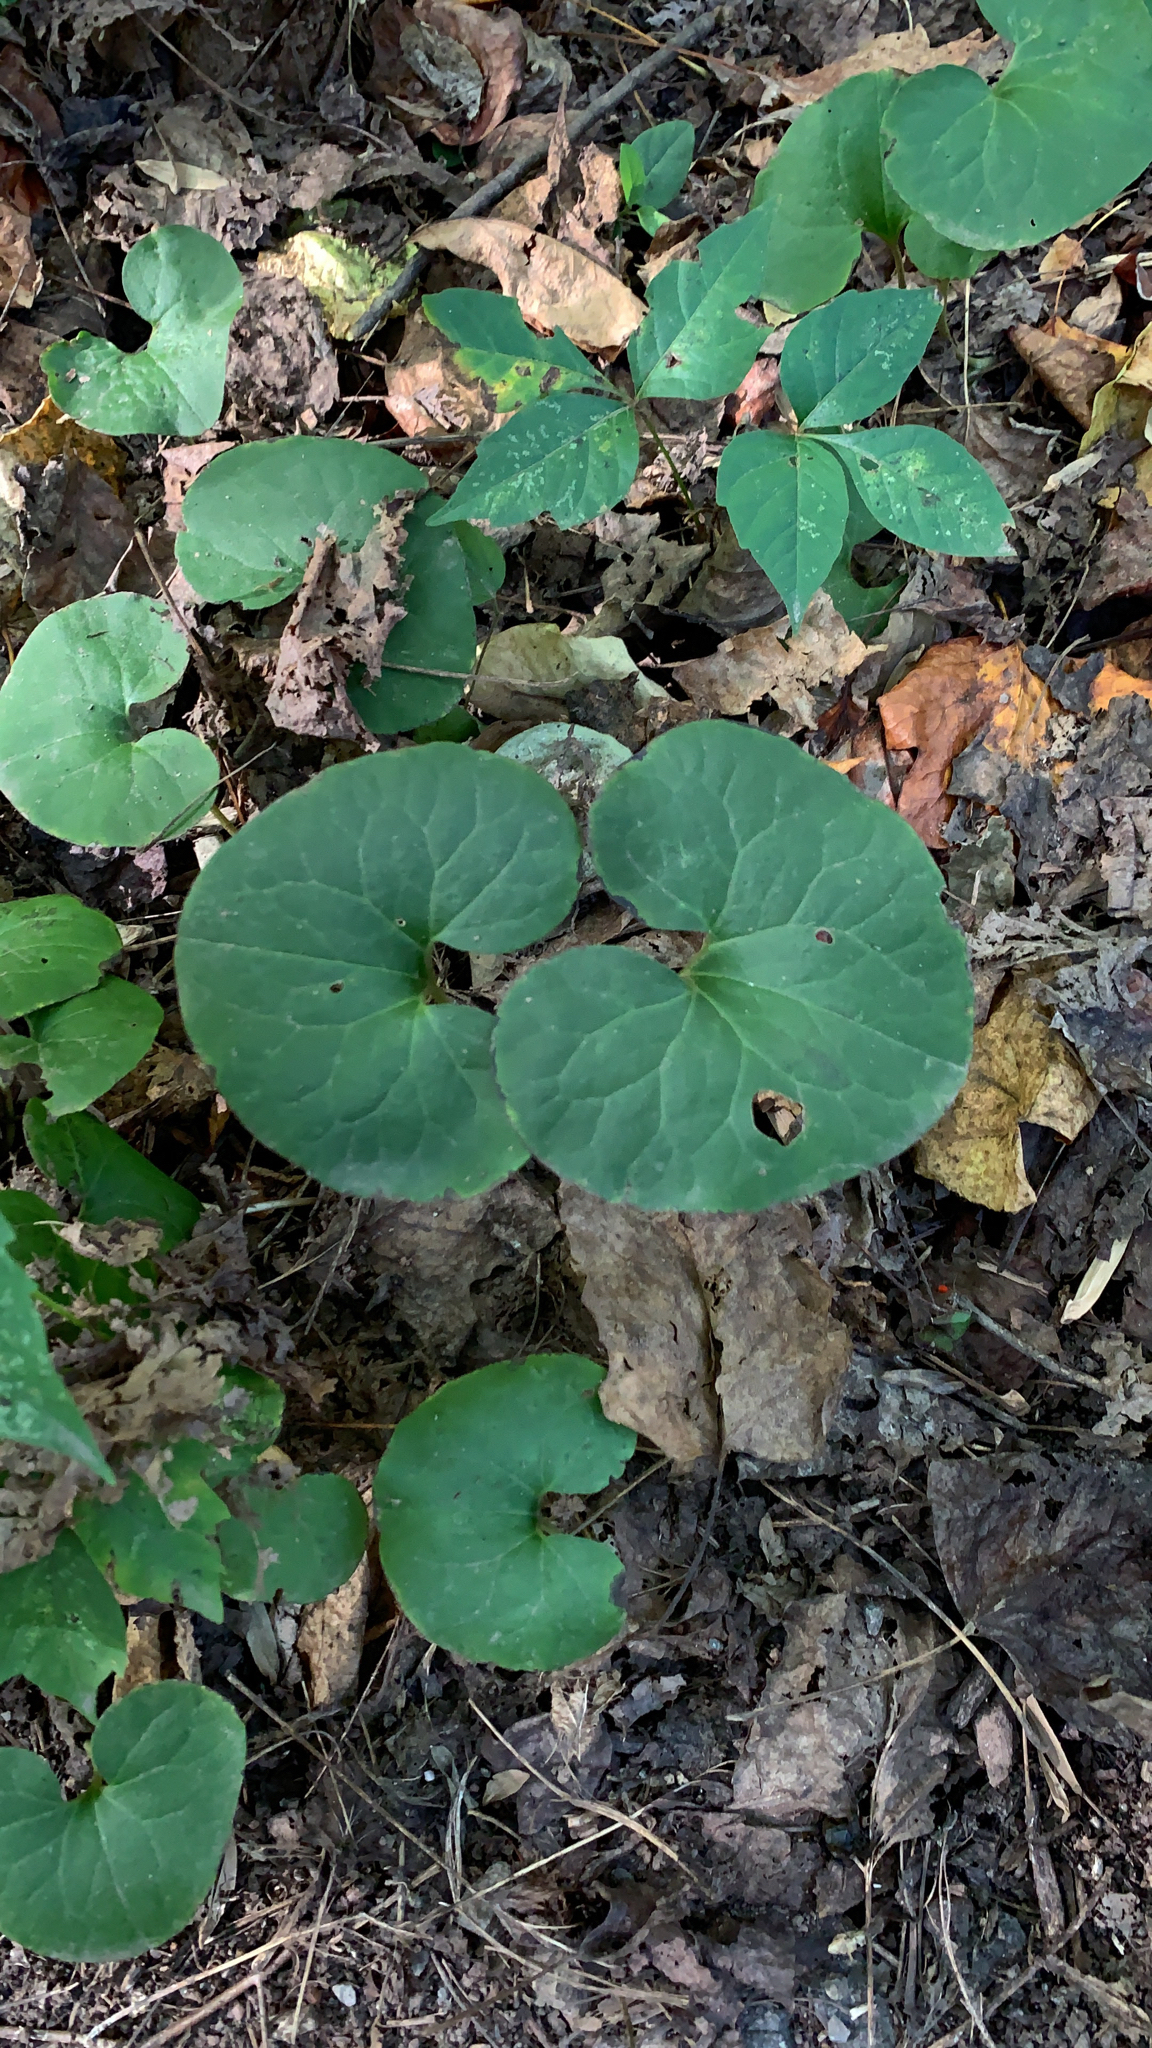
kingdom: Plantae
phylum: Tracheophyta
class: Magnoliopsida
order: Piperales
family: Aristolochiaceae
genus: Asarum
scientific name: Asarum canadense
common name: Wild ginger
